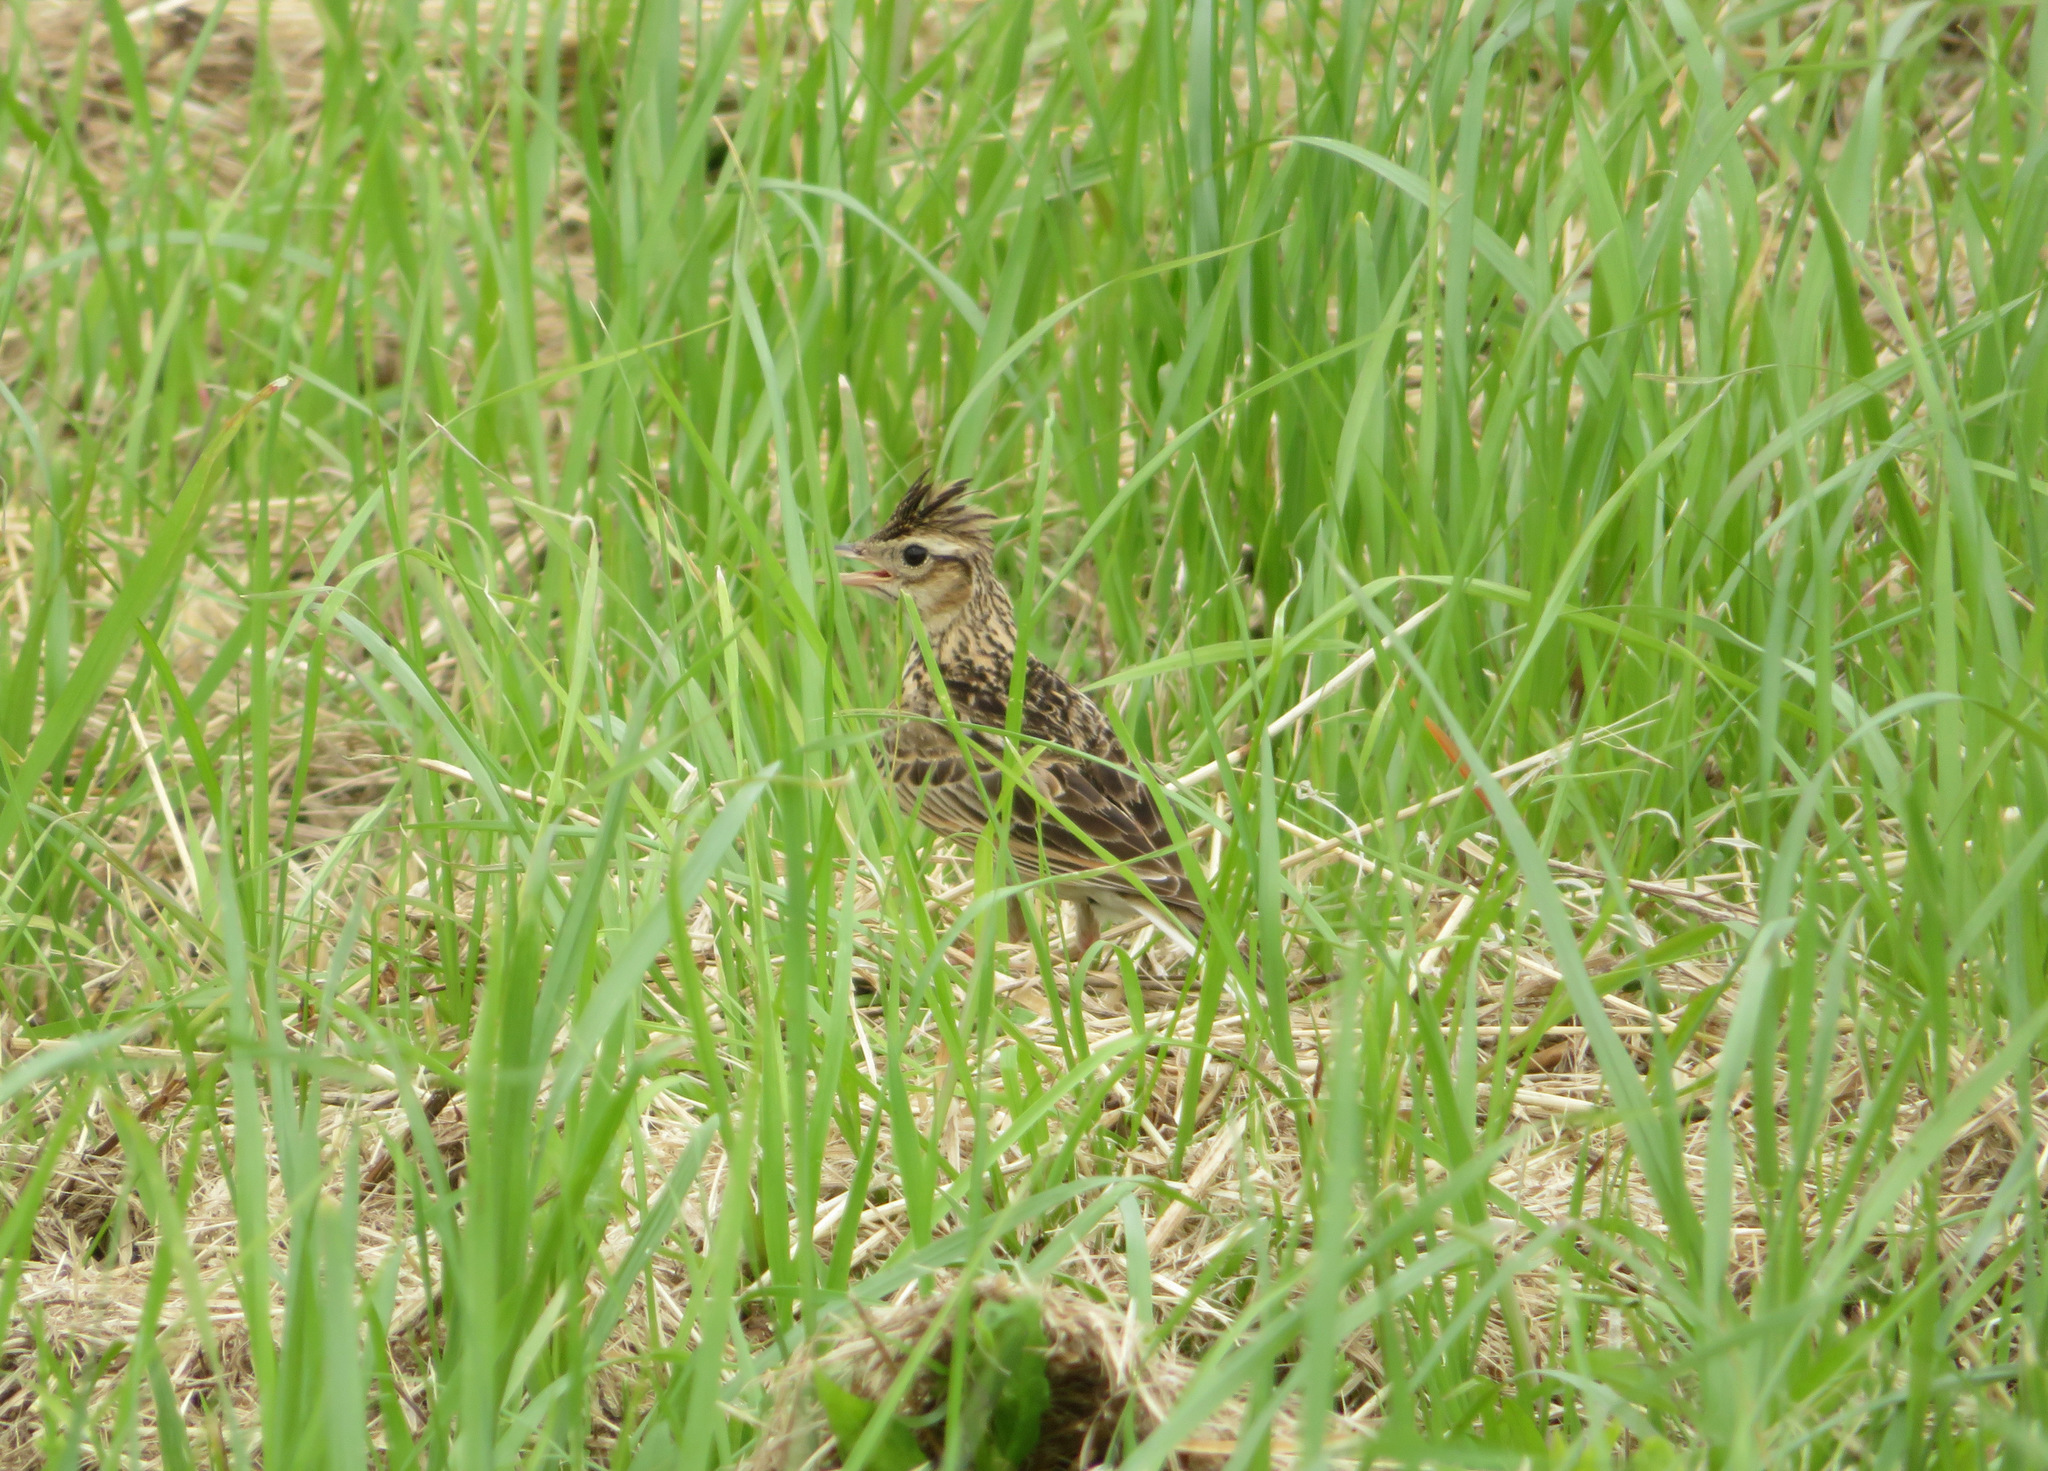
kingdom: Animalia
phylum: Chordata
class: Aves
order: Passeriformes
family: Alaudidae
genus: Alauda
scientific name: Alauda arvensis
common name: Eurasian skylark
